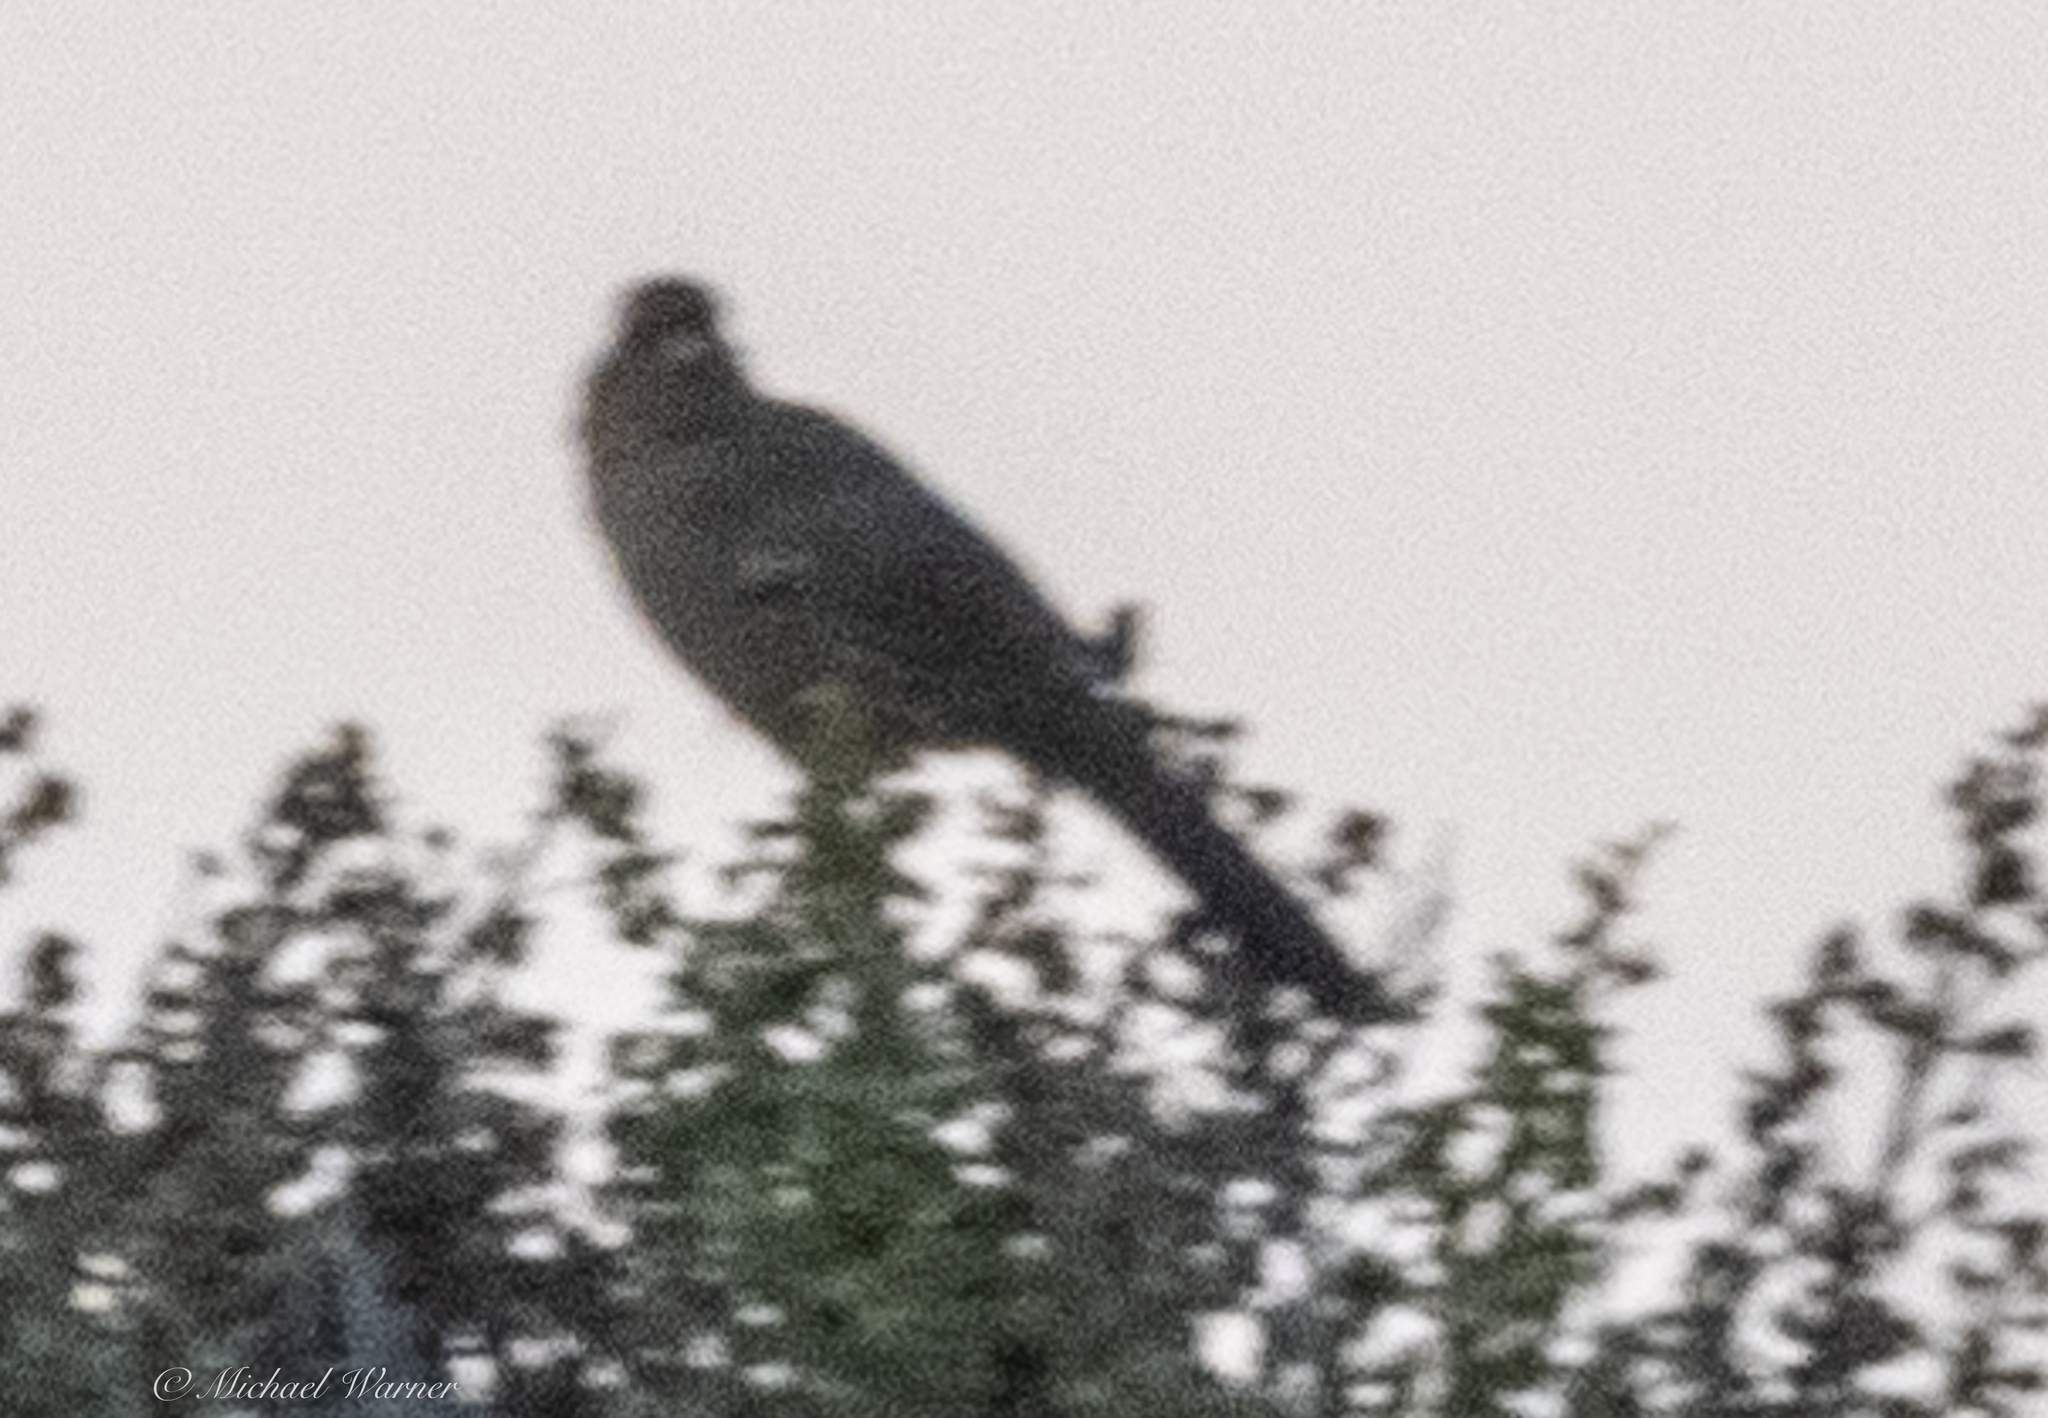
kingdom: Animalia
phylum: Chordata
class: Aves
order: Passeriformes
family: Passerellidae
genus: Melozone
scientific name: Melozone crissalis
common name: California towhee
